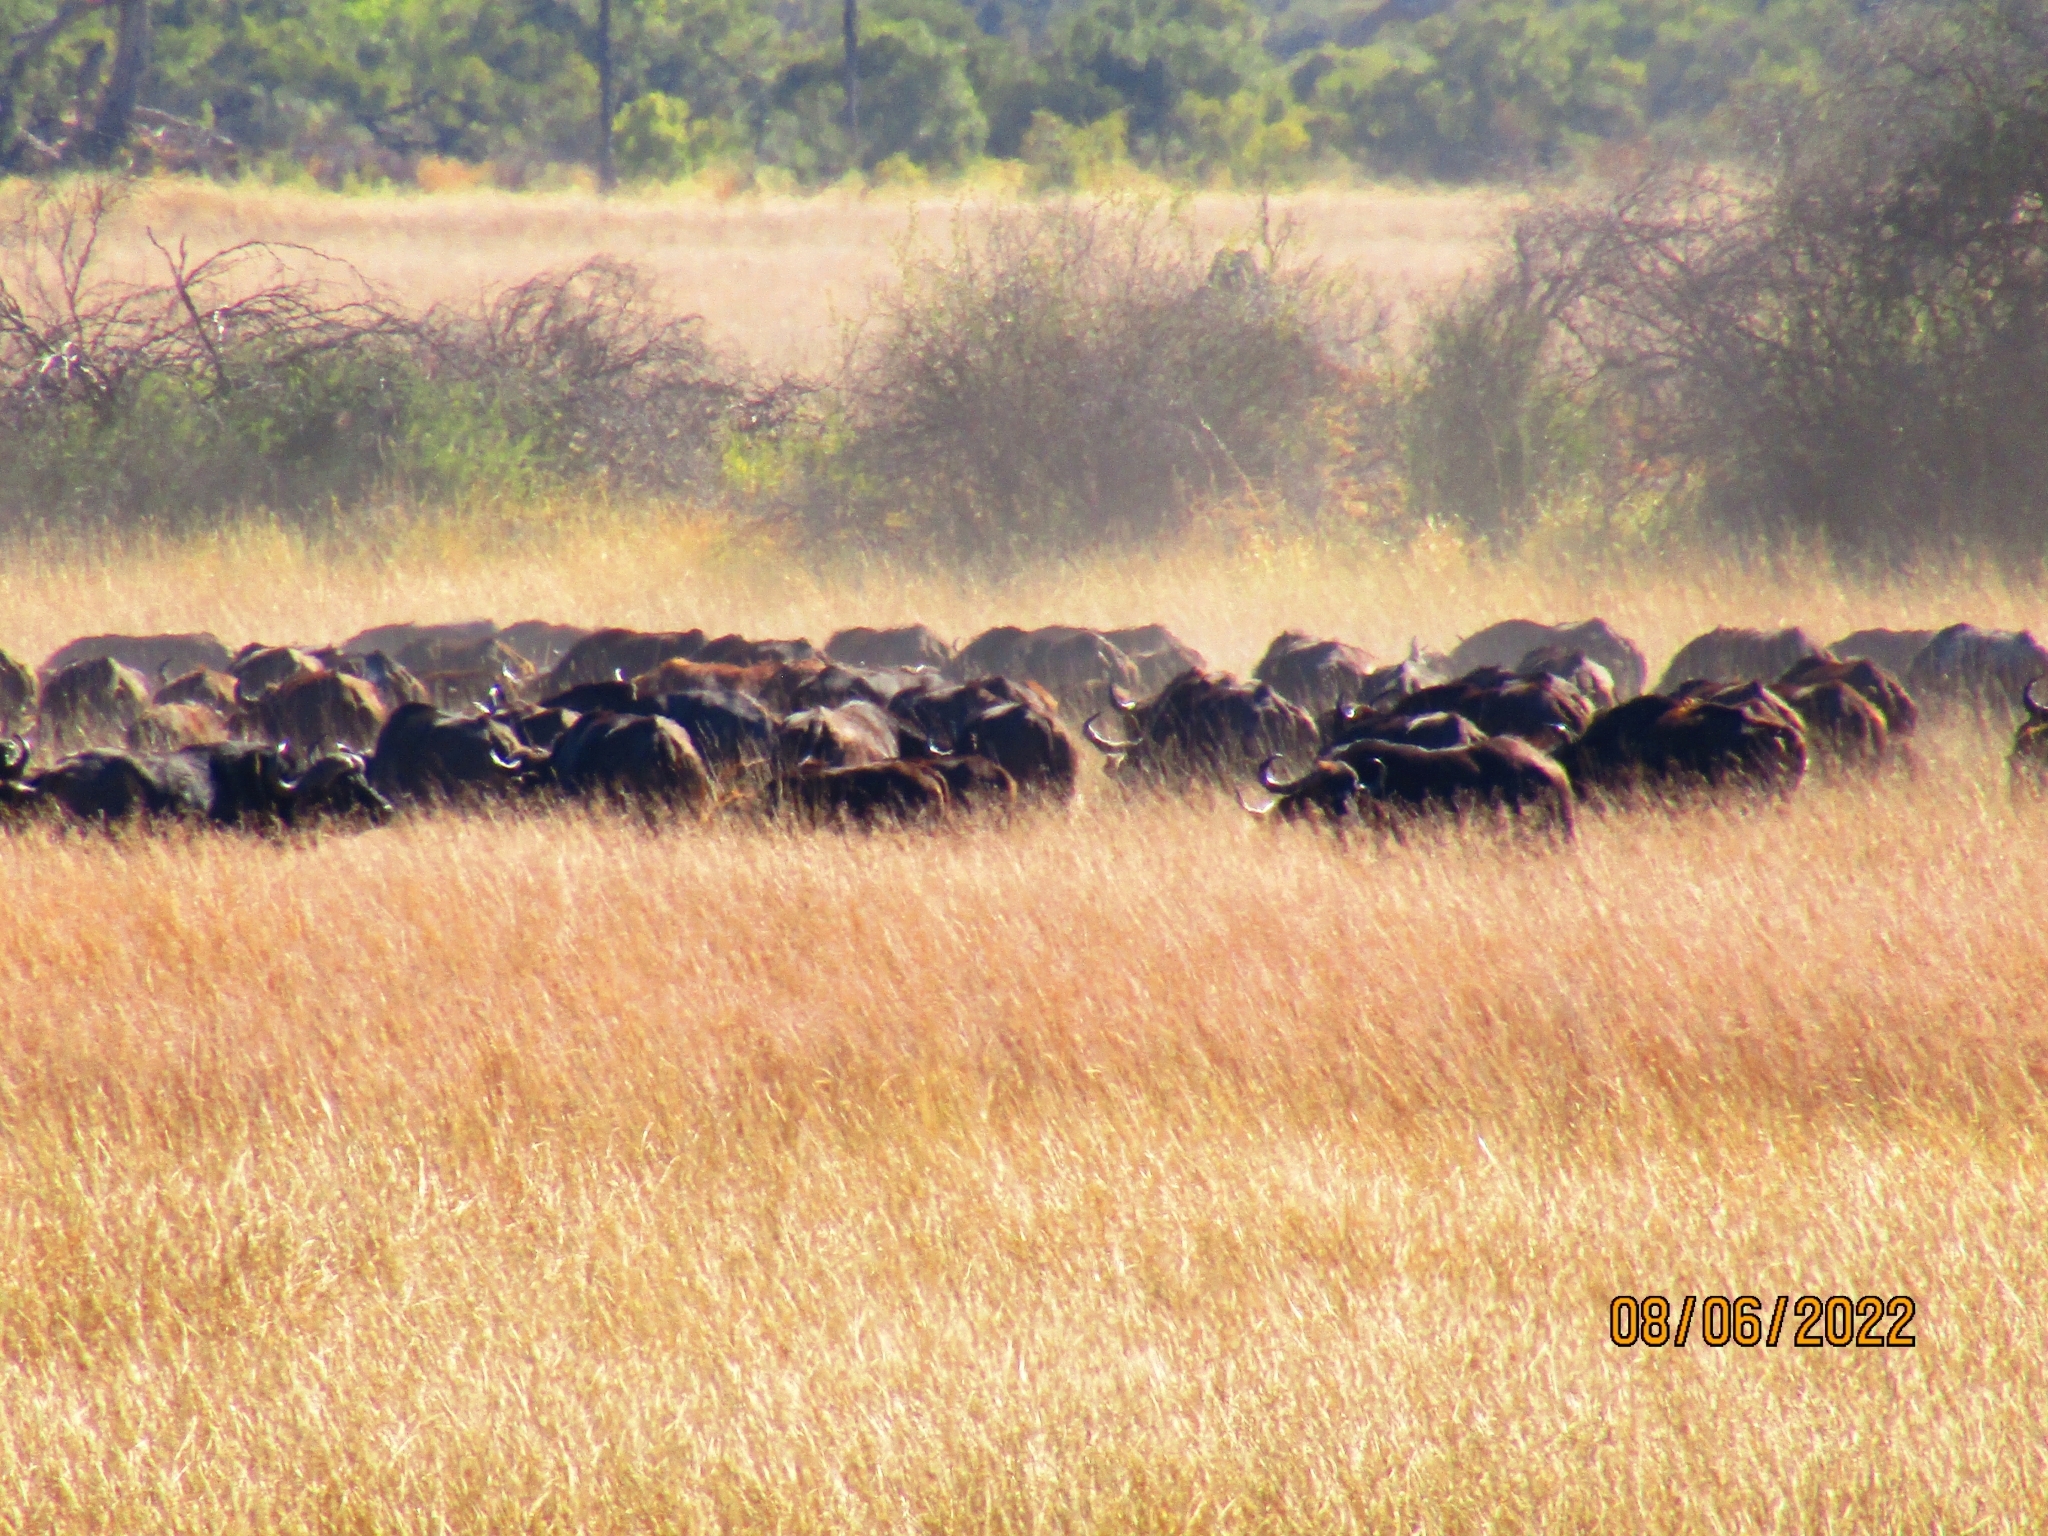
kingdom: Animalia
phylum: Chordata
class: Mammalia
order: Artiodactyla
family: Bovidae
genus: Syncerus
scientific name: Syncerus caffer
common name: African buffalo
